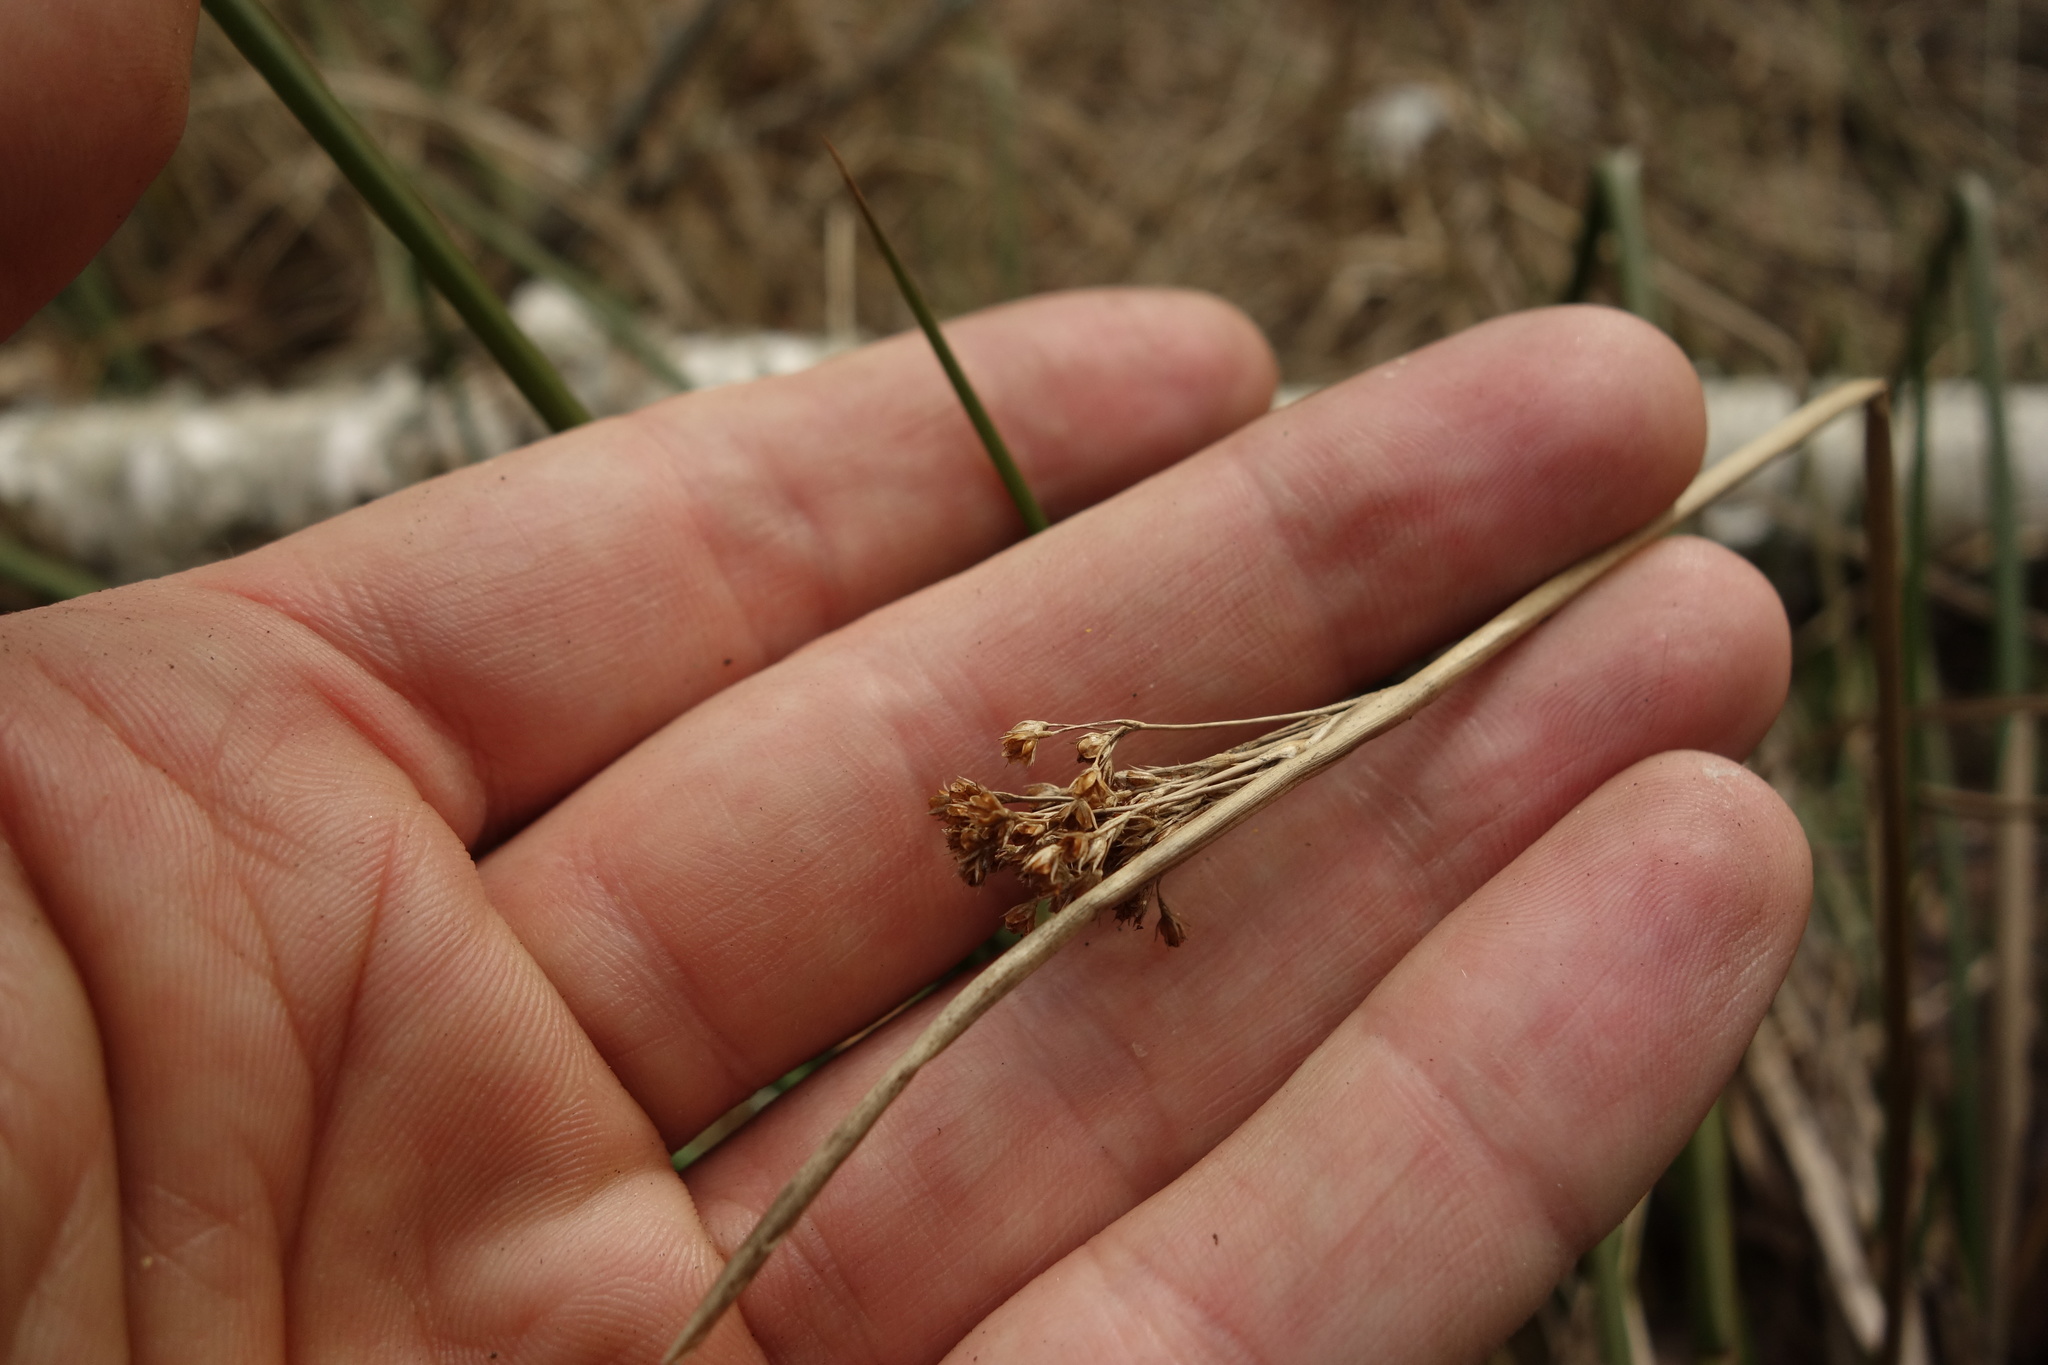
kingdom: Plantae
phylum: Tracheophyta
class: Liliopsida
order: Poales
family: Juncaceae
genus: Juncus
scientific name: Juncus effusus
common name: Soft rush
